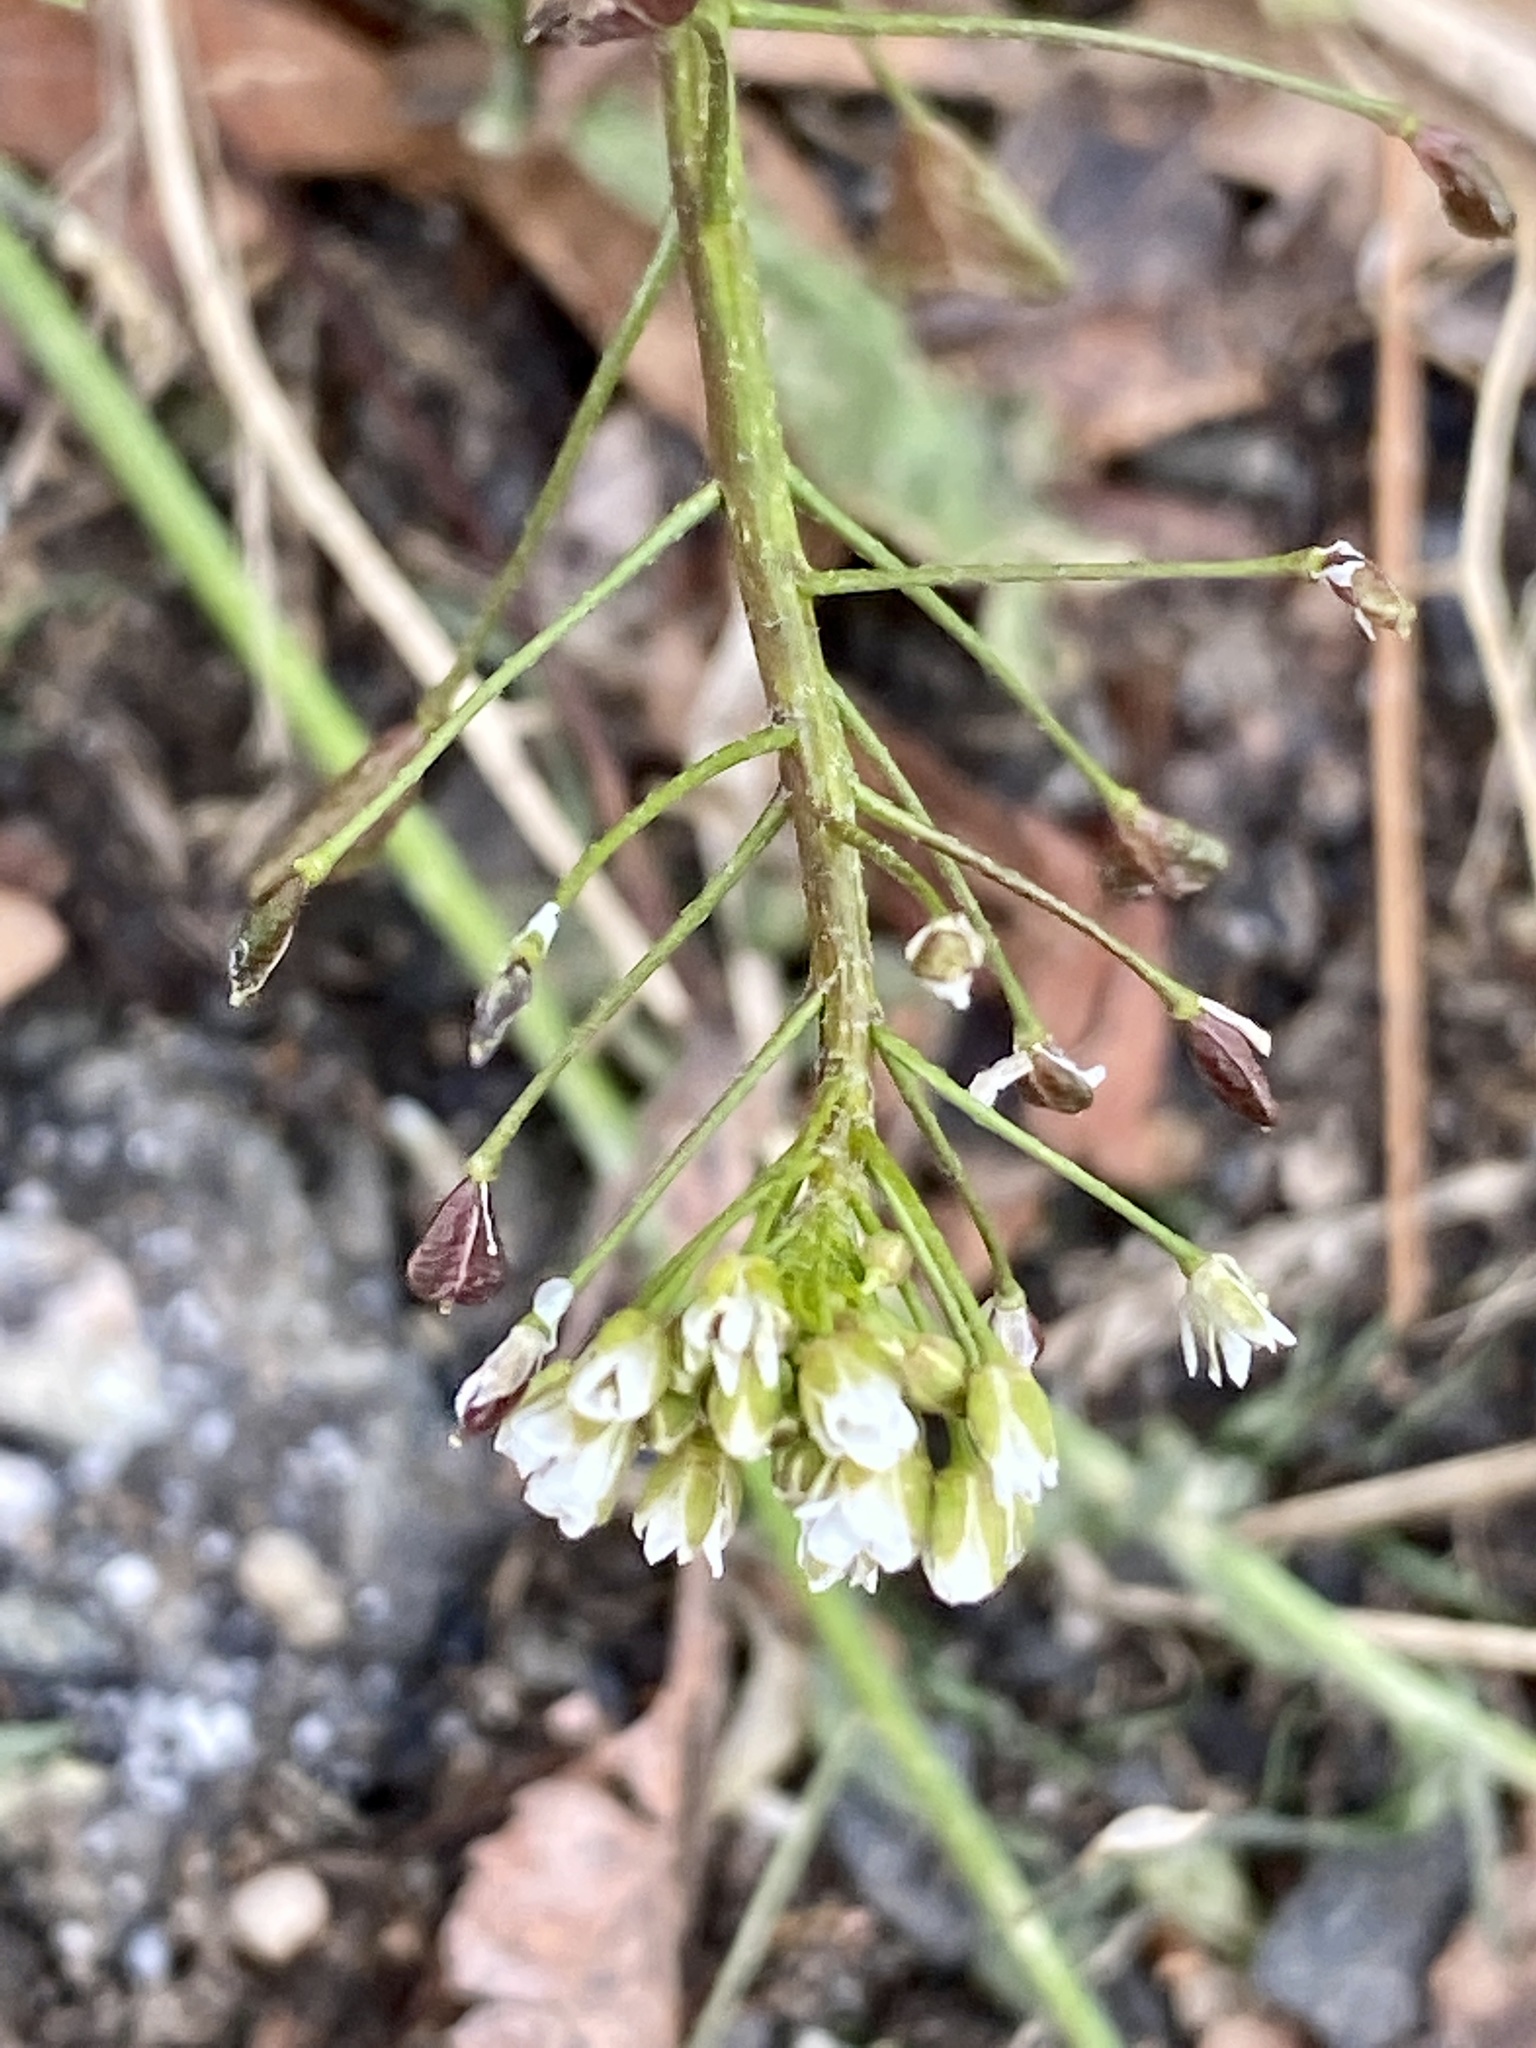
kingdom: Plantae
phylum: Tracheophyta
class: Magnoliopsida
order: Brassicales
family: Brassicaceae
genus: Capsella
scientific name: Capsella bursa-pastoris
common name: Shepherd's purse
